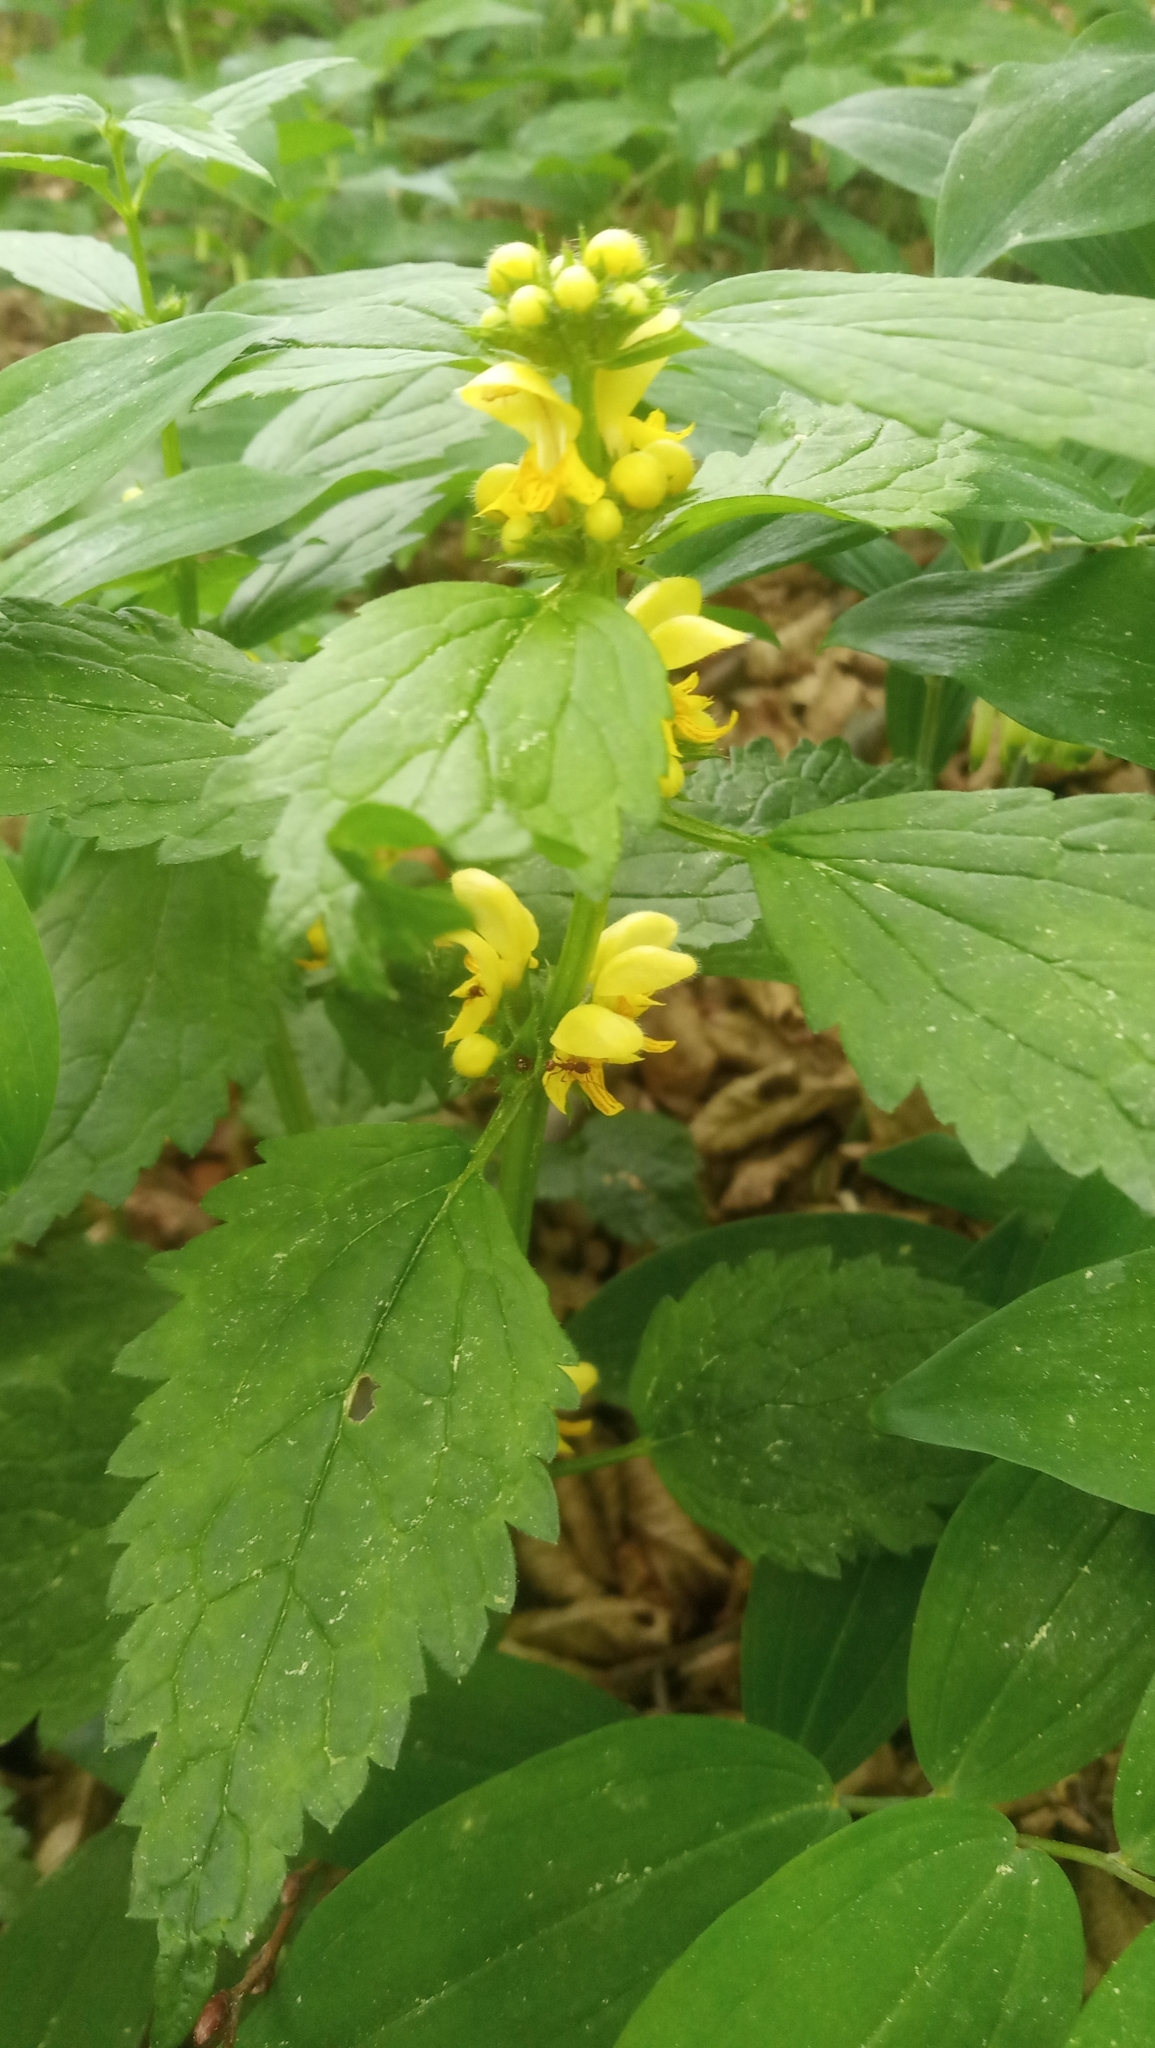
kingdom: Plantae
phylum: Tracheophyta
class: Magnoliopsida
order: Lamiales
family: Lamiaceae
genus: Lamium
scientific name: Lamium galeobdolon
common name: Yellow archangel
